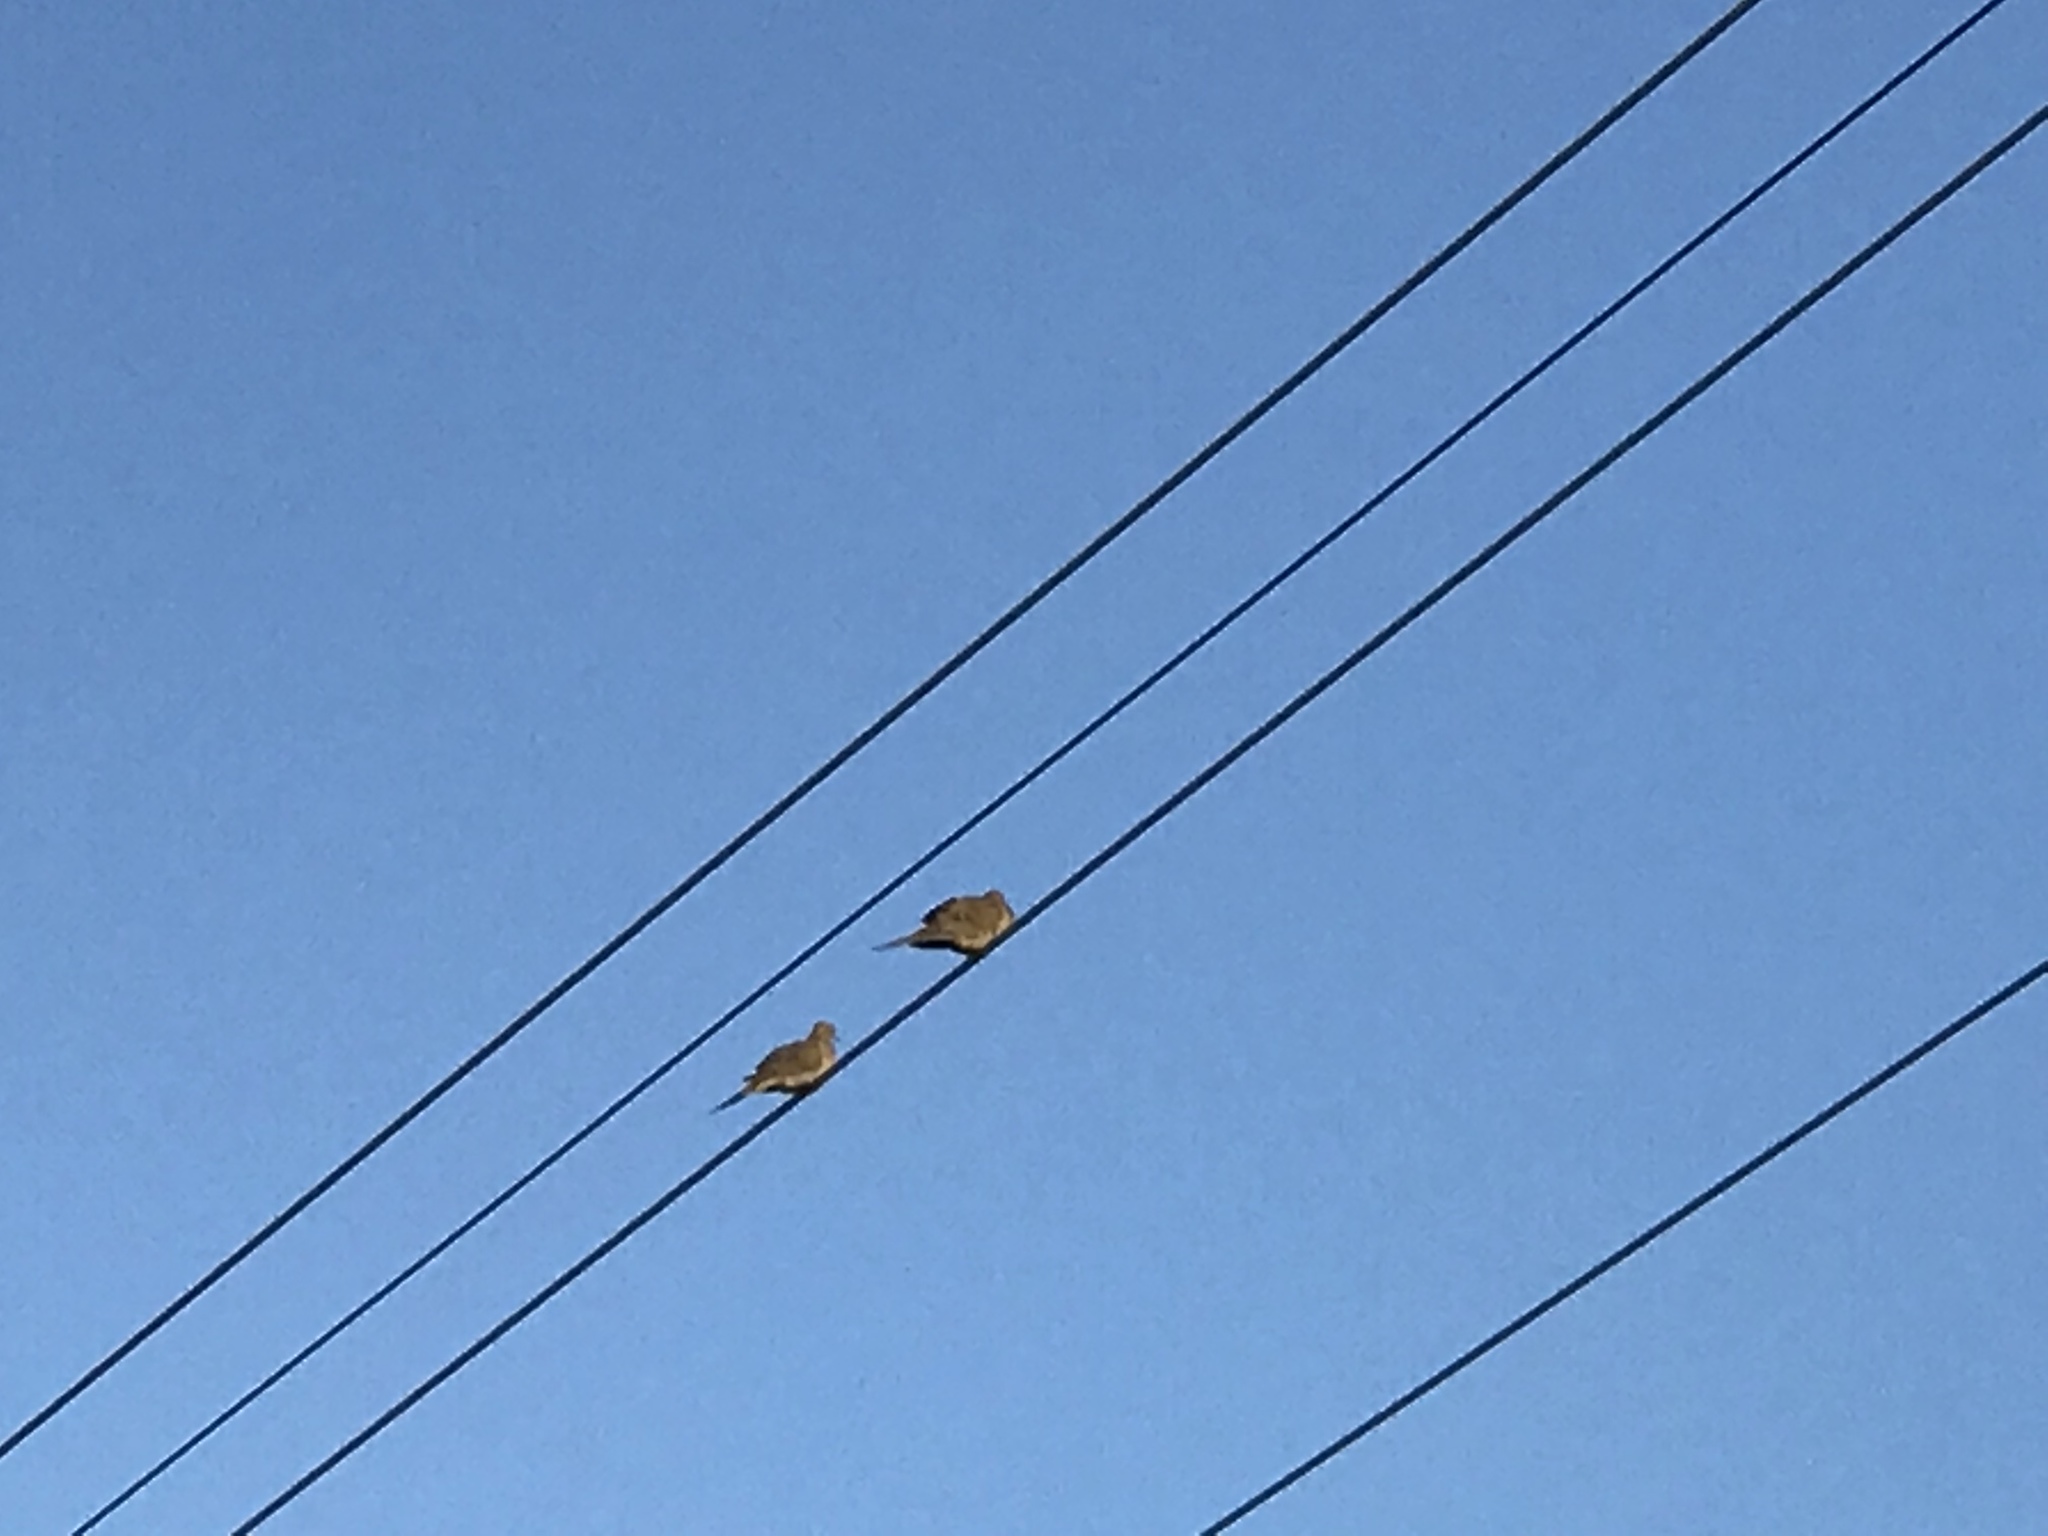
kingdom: Animalia
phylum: Chordata
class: Aves
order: Columbiformes
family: Columbidae
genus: Zenaida
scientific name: Zenaida macroura
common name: Mourning dove
